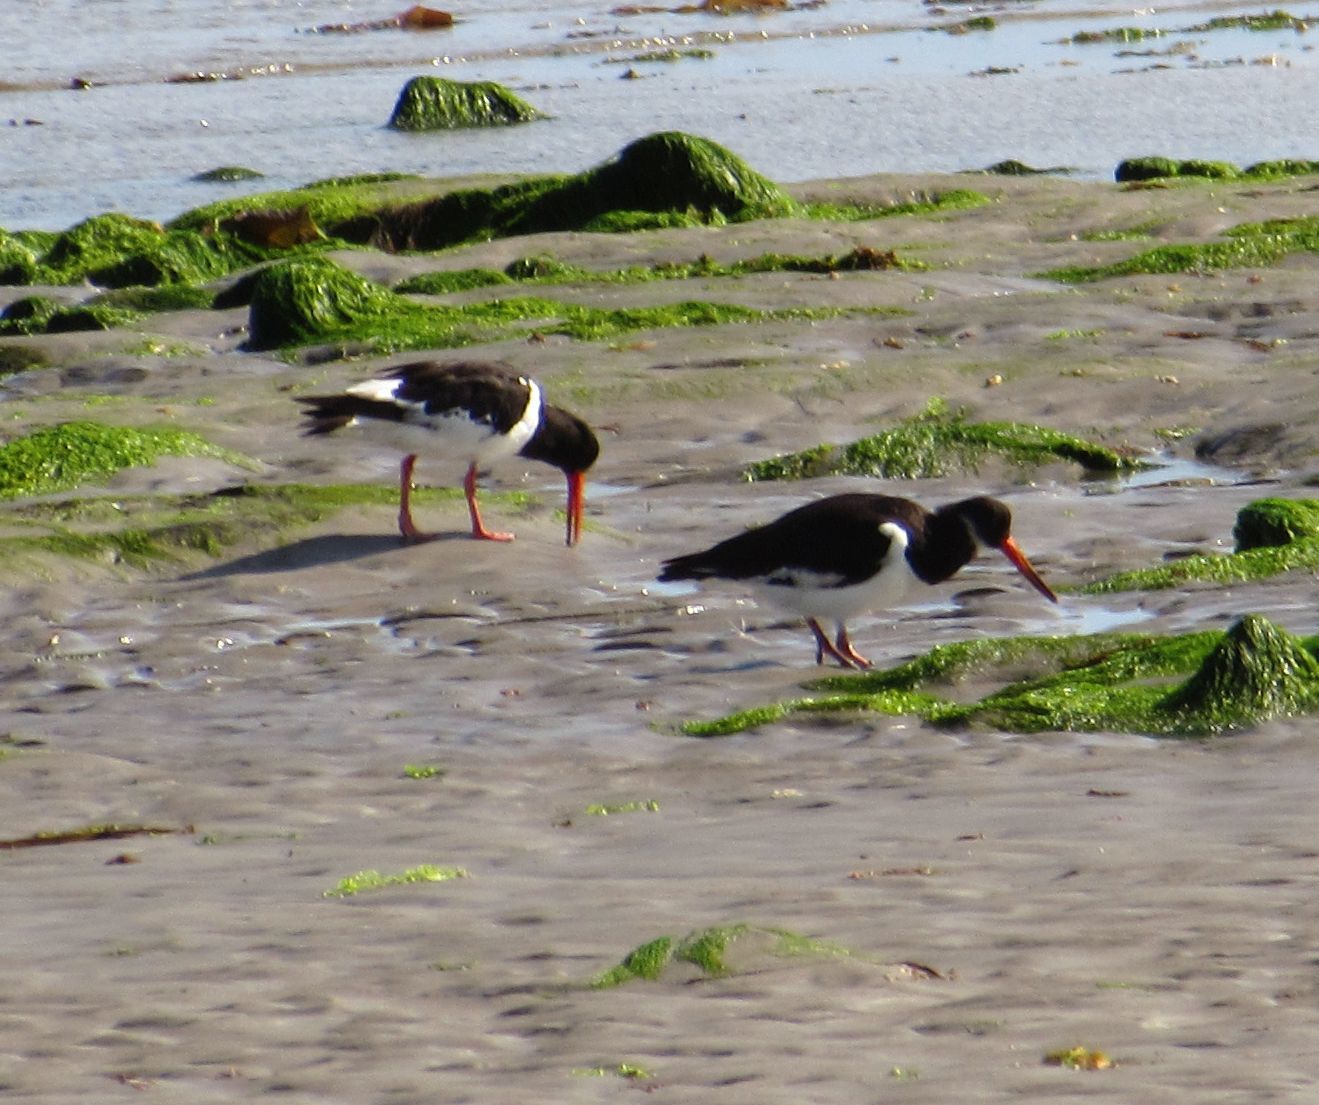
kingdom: Animalia
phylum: Chordata
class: Aves
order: Charadriiformes
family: Haematopodidae
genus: Haematopus
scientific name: Haematopus ostralegus
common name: Eurasian oystercatcher
